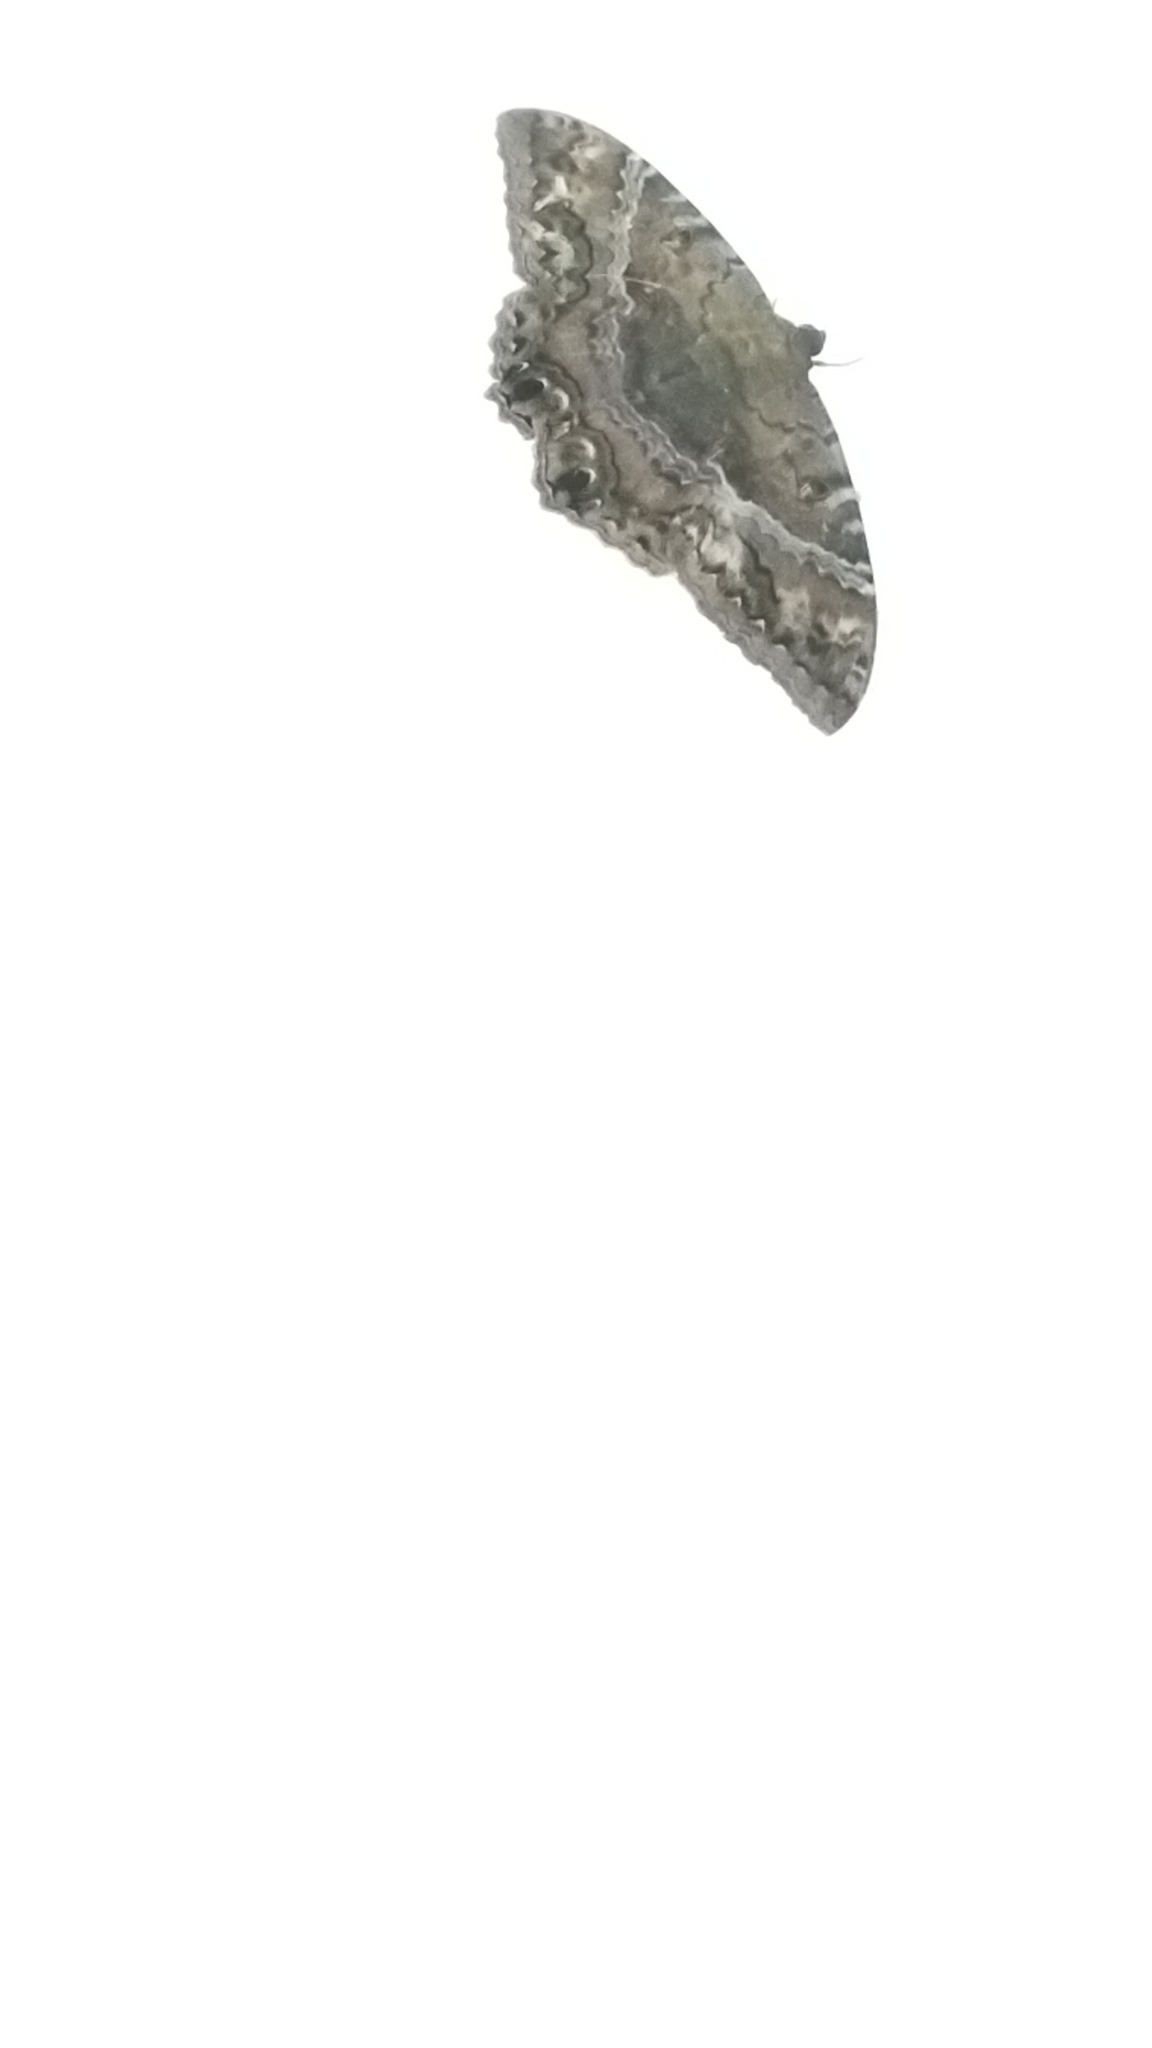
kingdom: Animalia
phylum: Arthropoda
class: Insecta
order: Lepidoptera
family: Erebidae
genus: Ascalapha
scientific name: Ascalapha odorata
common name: Black witch
